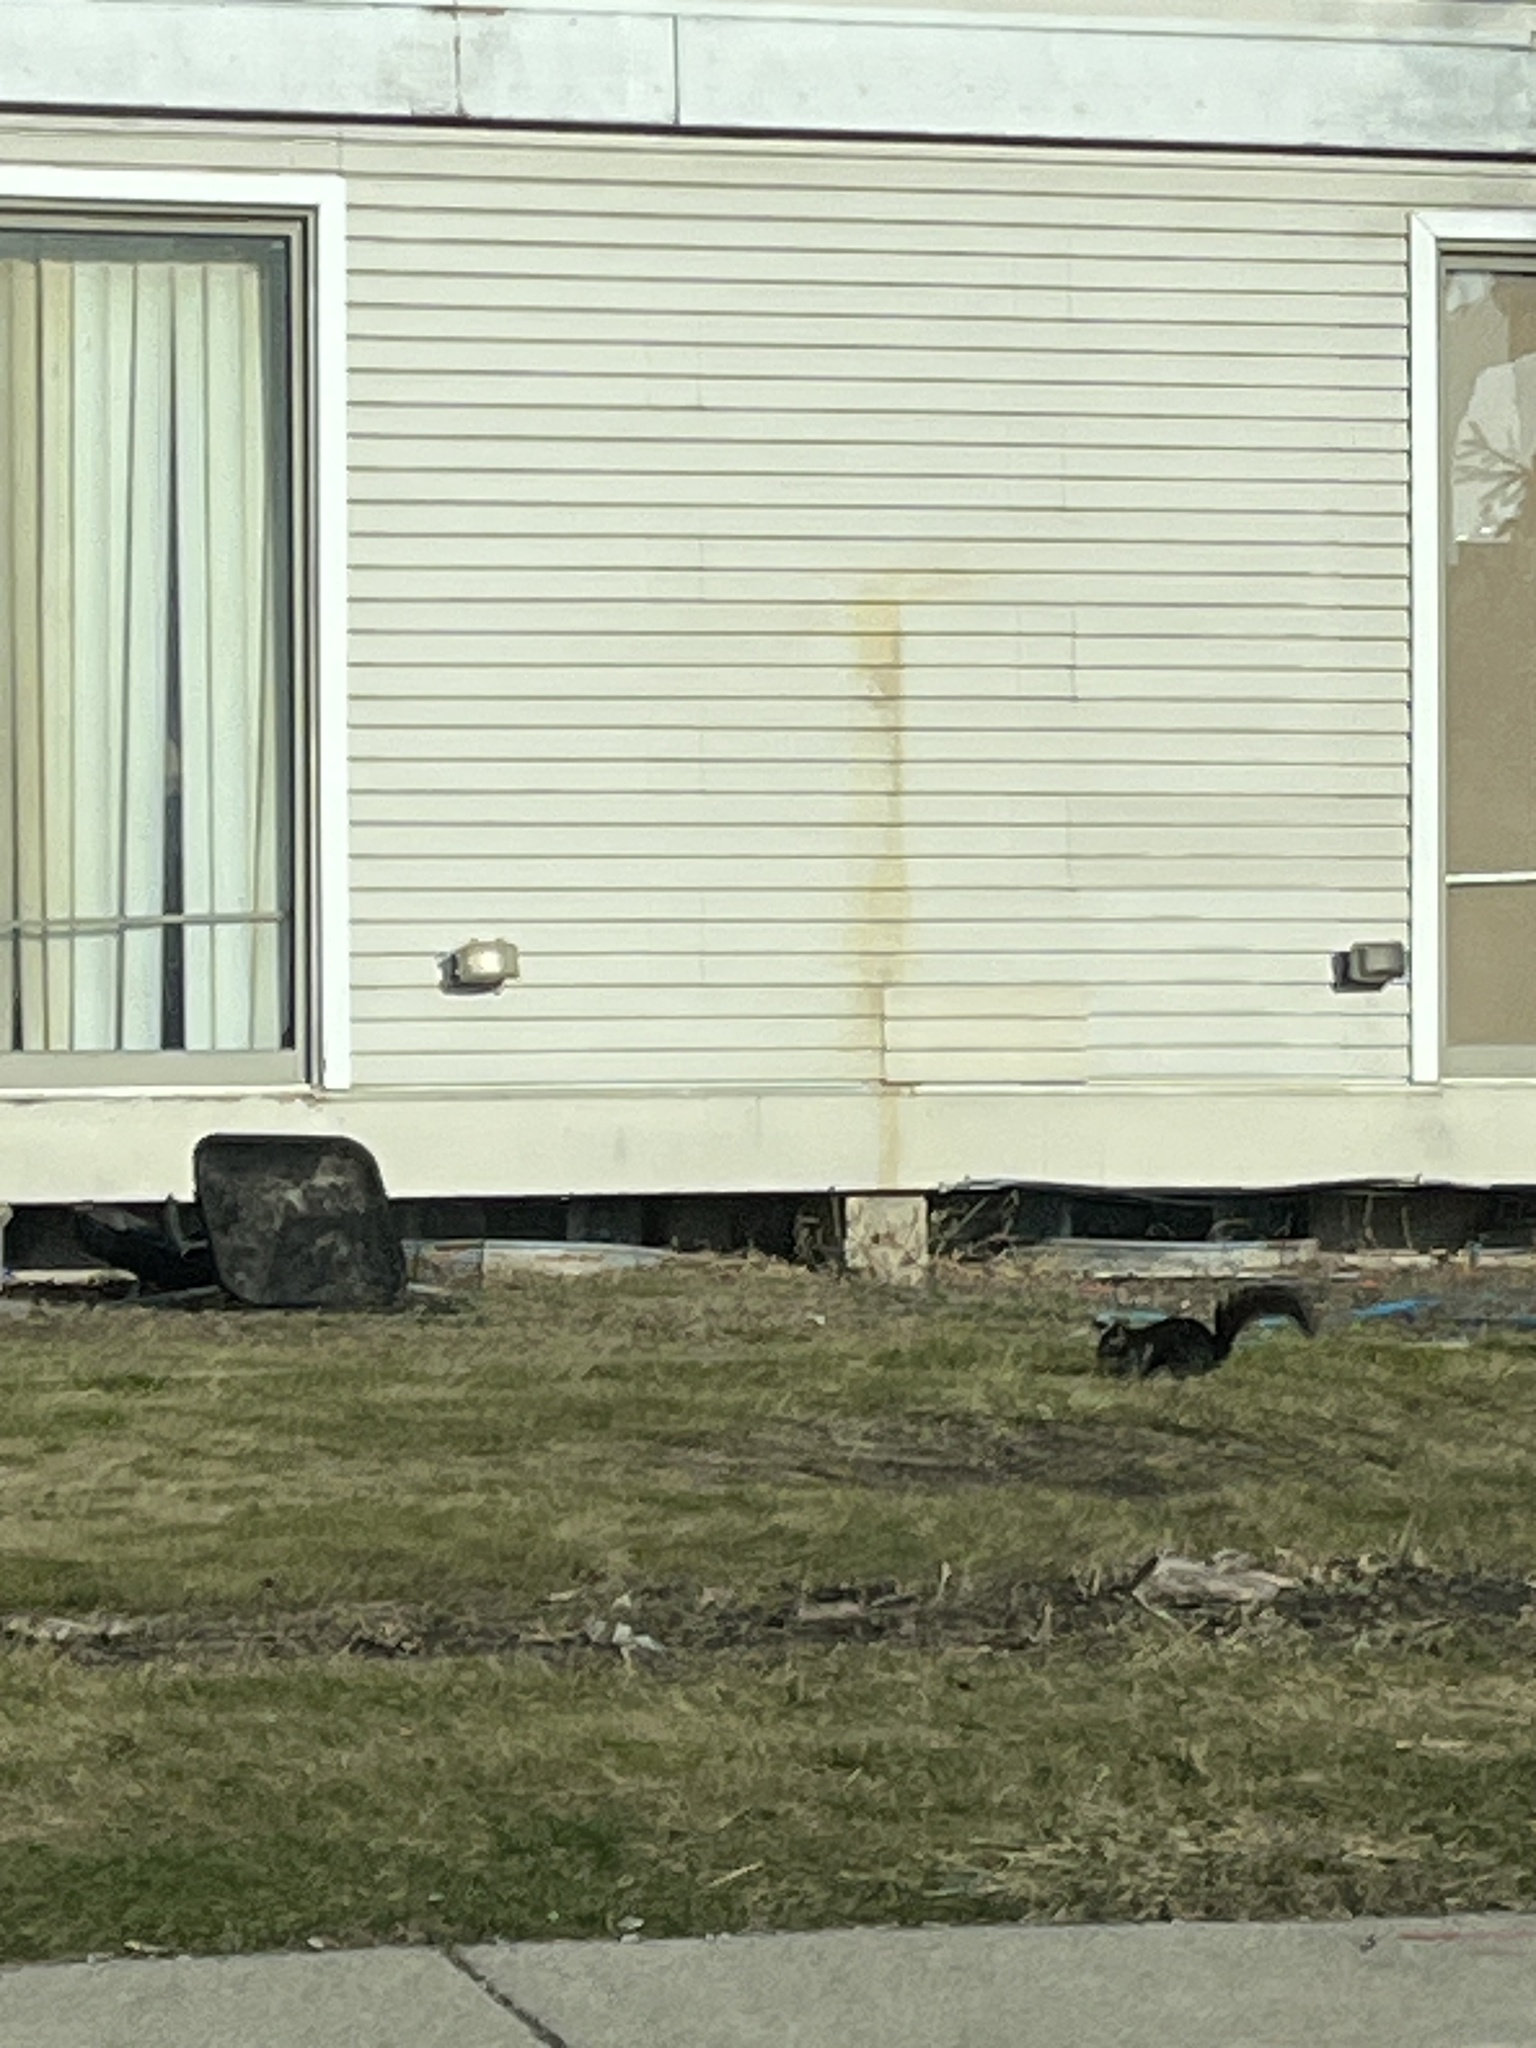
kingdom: Animalia
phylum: Chordata
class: Mammalia
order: Rodentia
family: Sciuridae
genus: Sciurus
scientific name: Sciurus carolinensis
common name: Eastern gray squirrel
